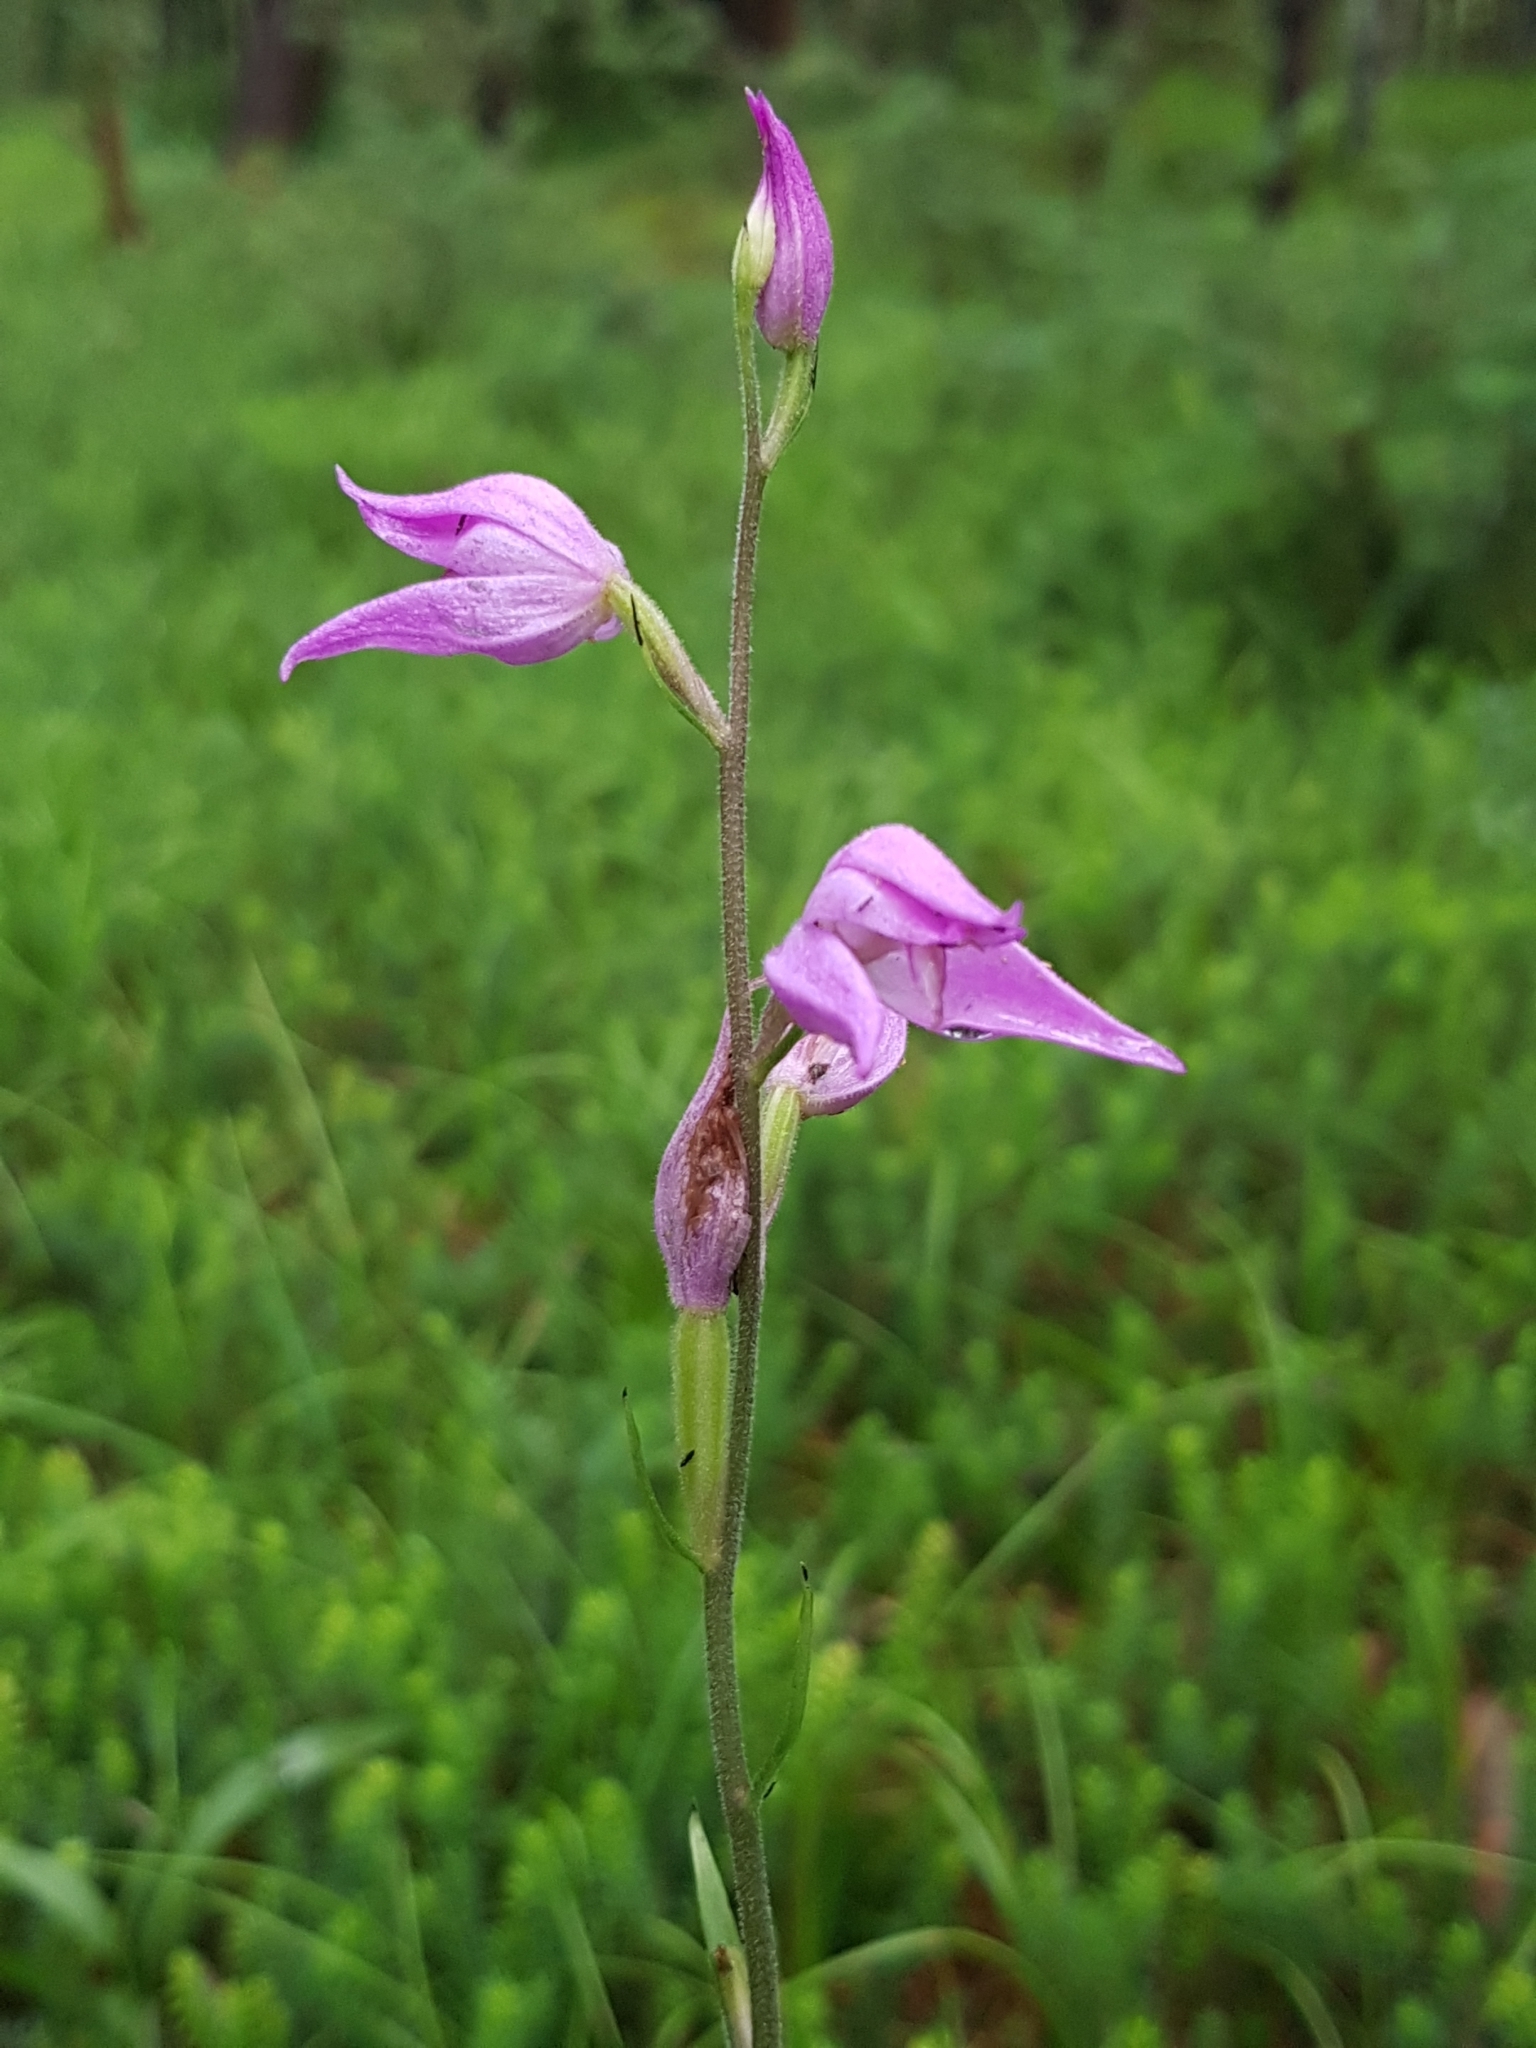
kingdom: Plantae
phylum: Tracheophyta
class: Liliopsida
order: Asparagales
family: Orchidaceae
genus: Cephalanthera
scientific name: Cephalanthera rubra
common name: Red helleborine
